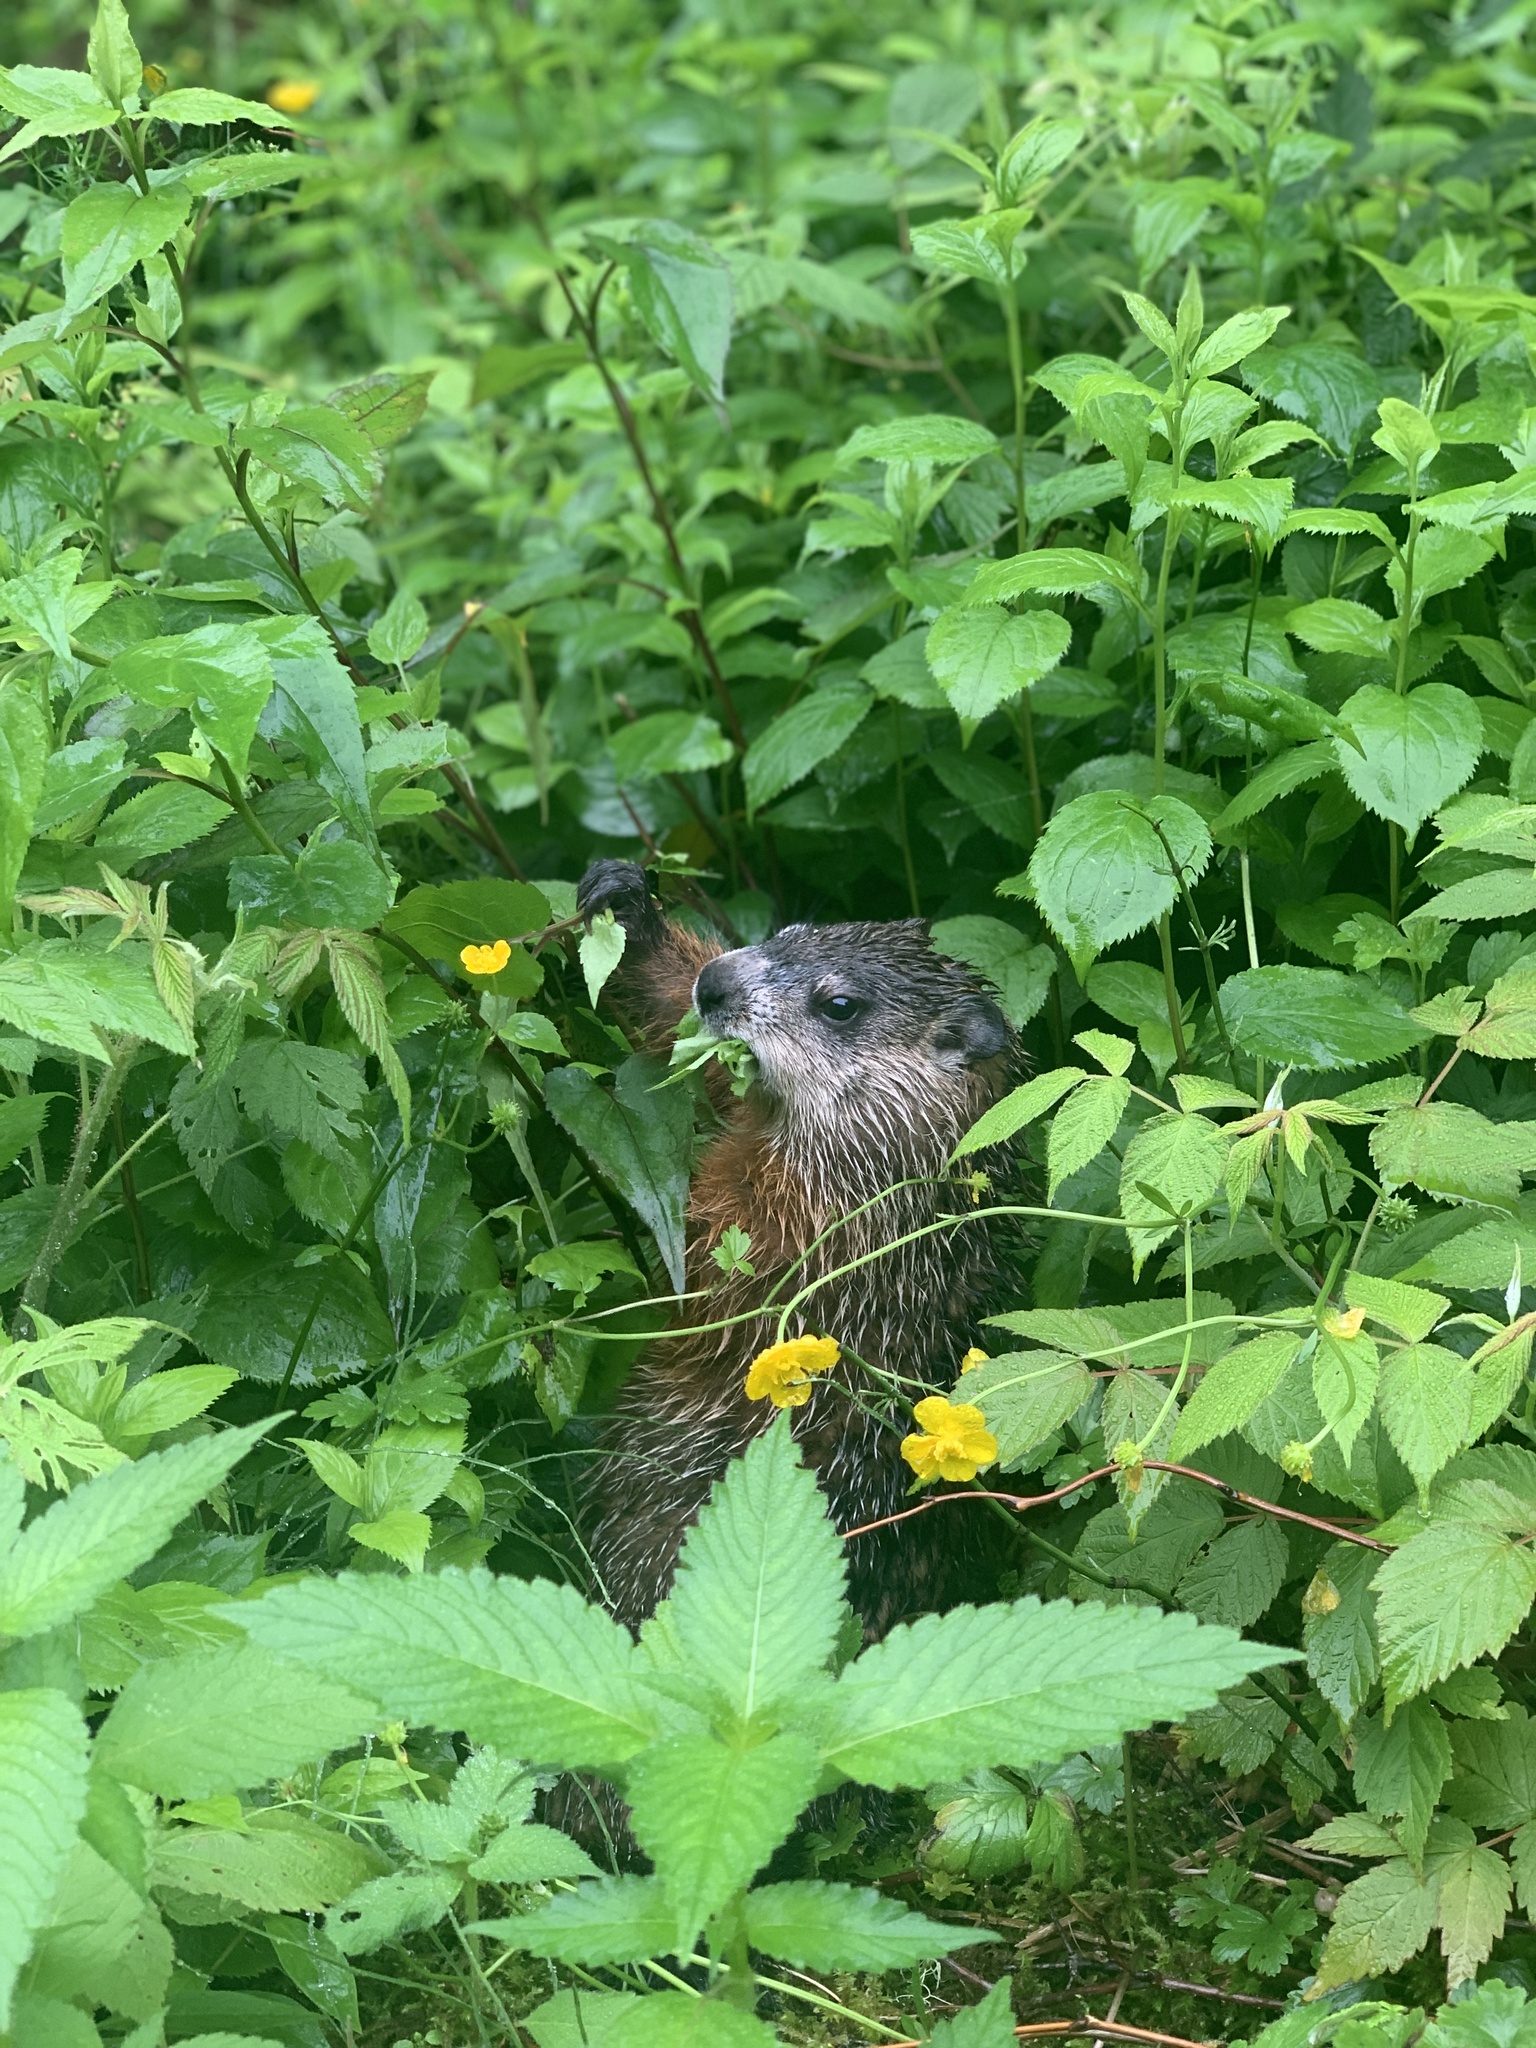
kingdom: Animalia
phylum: Chordata
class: Mammalia
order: Rodentia
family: Sciuridae
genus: Marmota
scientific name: Marmota monax
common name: Groundhog
